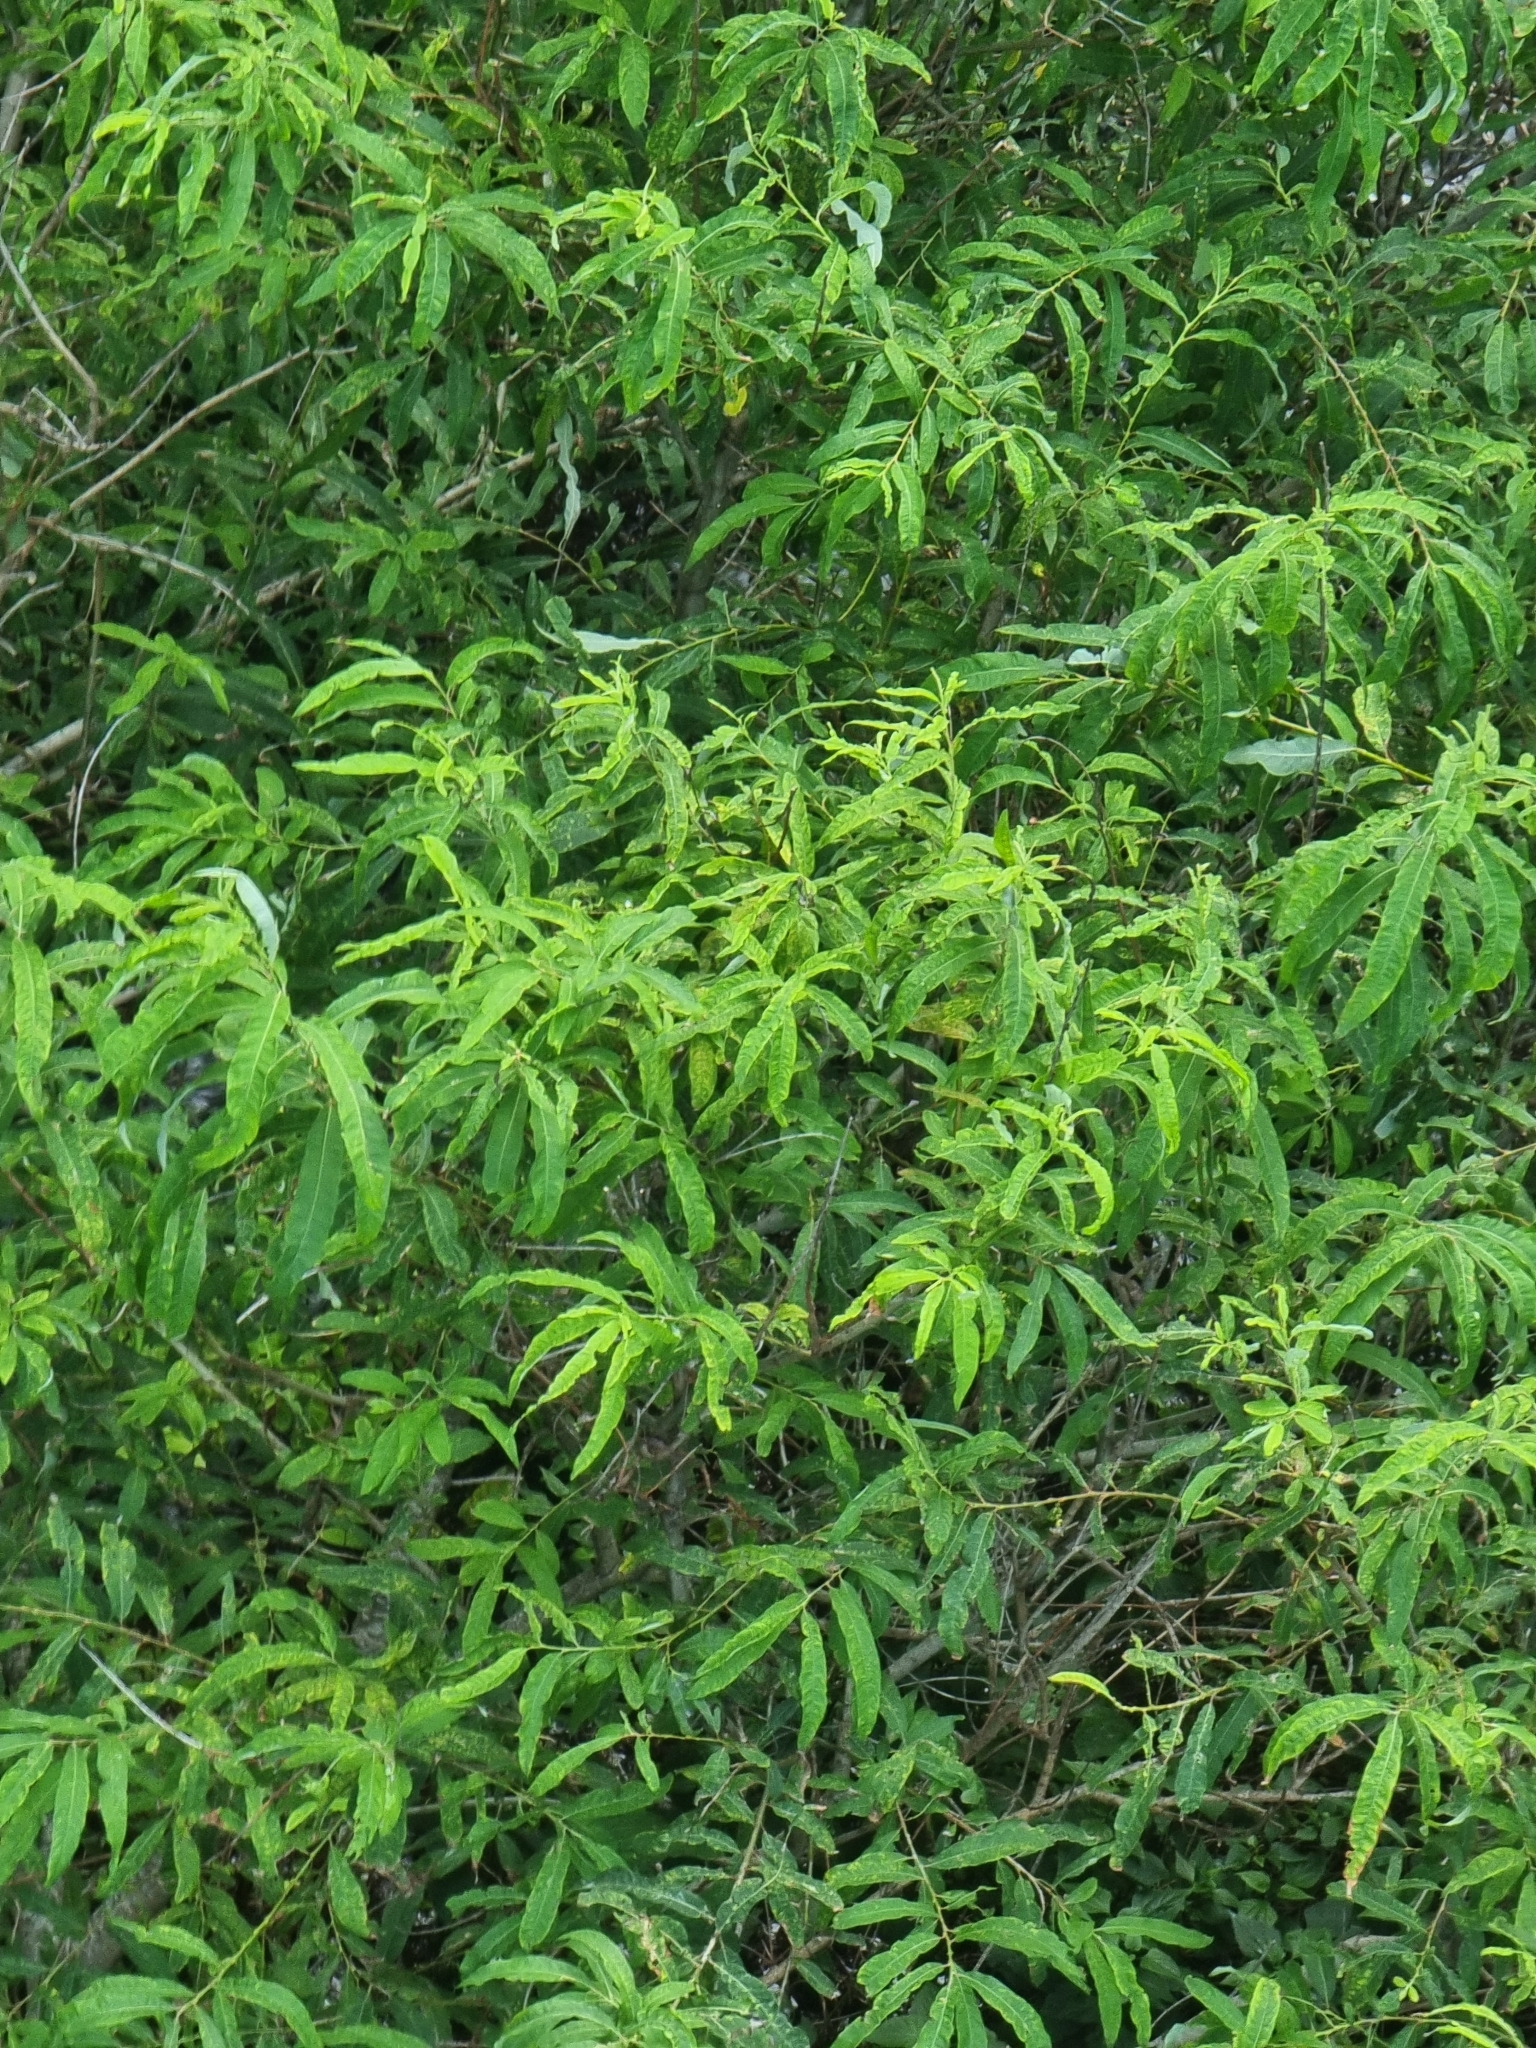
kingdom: Plantae
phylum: Tracheophyta
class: Magnoliopsida
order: Malpighiales
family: Salicaceae
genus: Salix
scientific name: Salix canariensis
